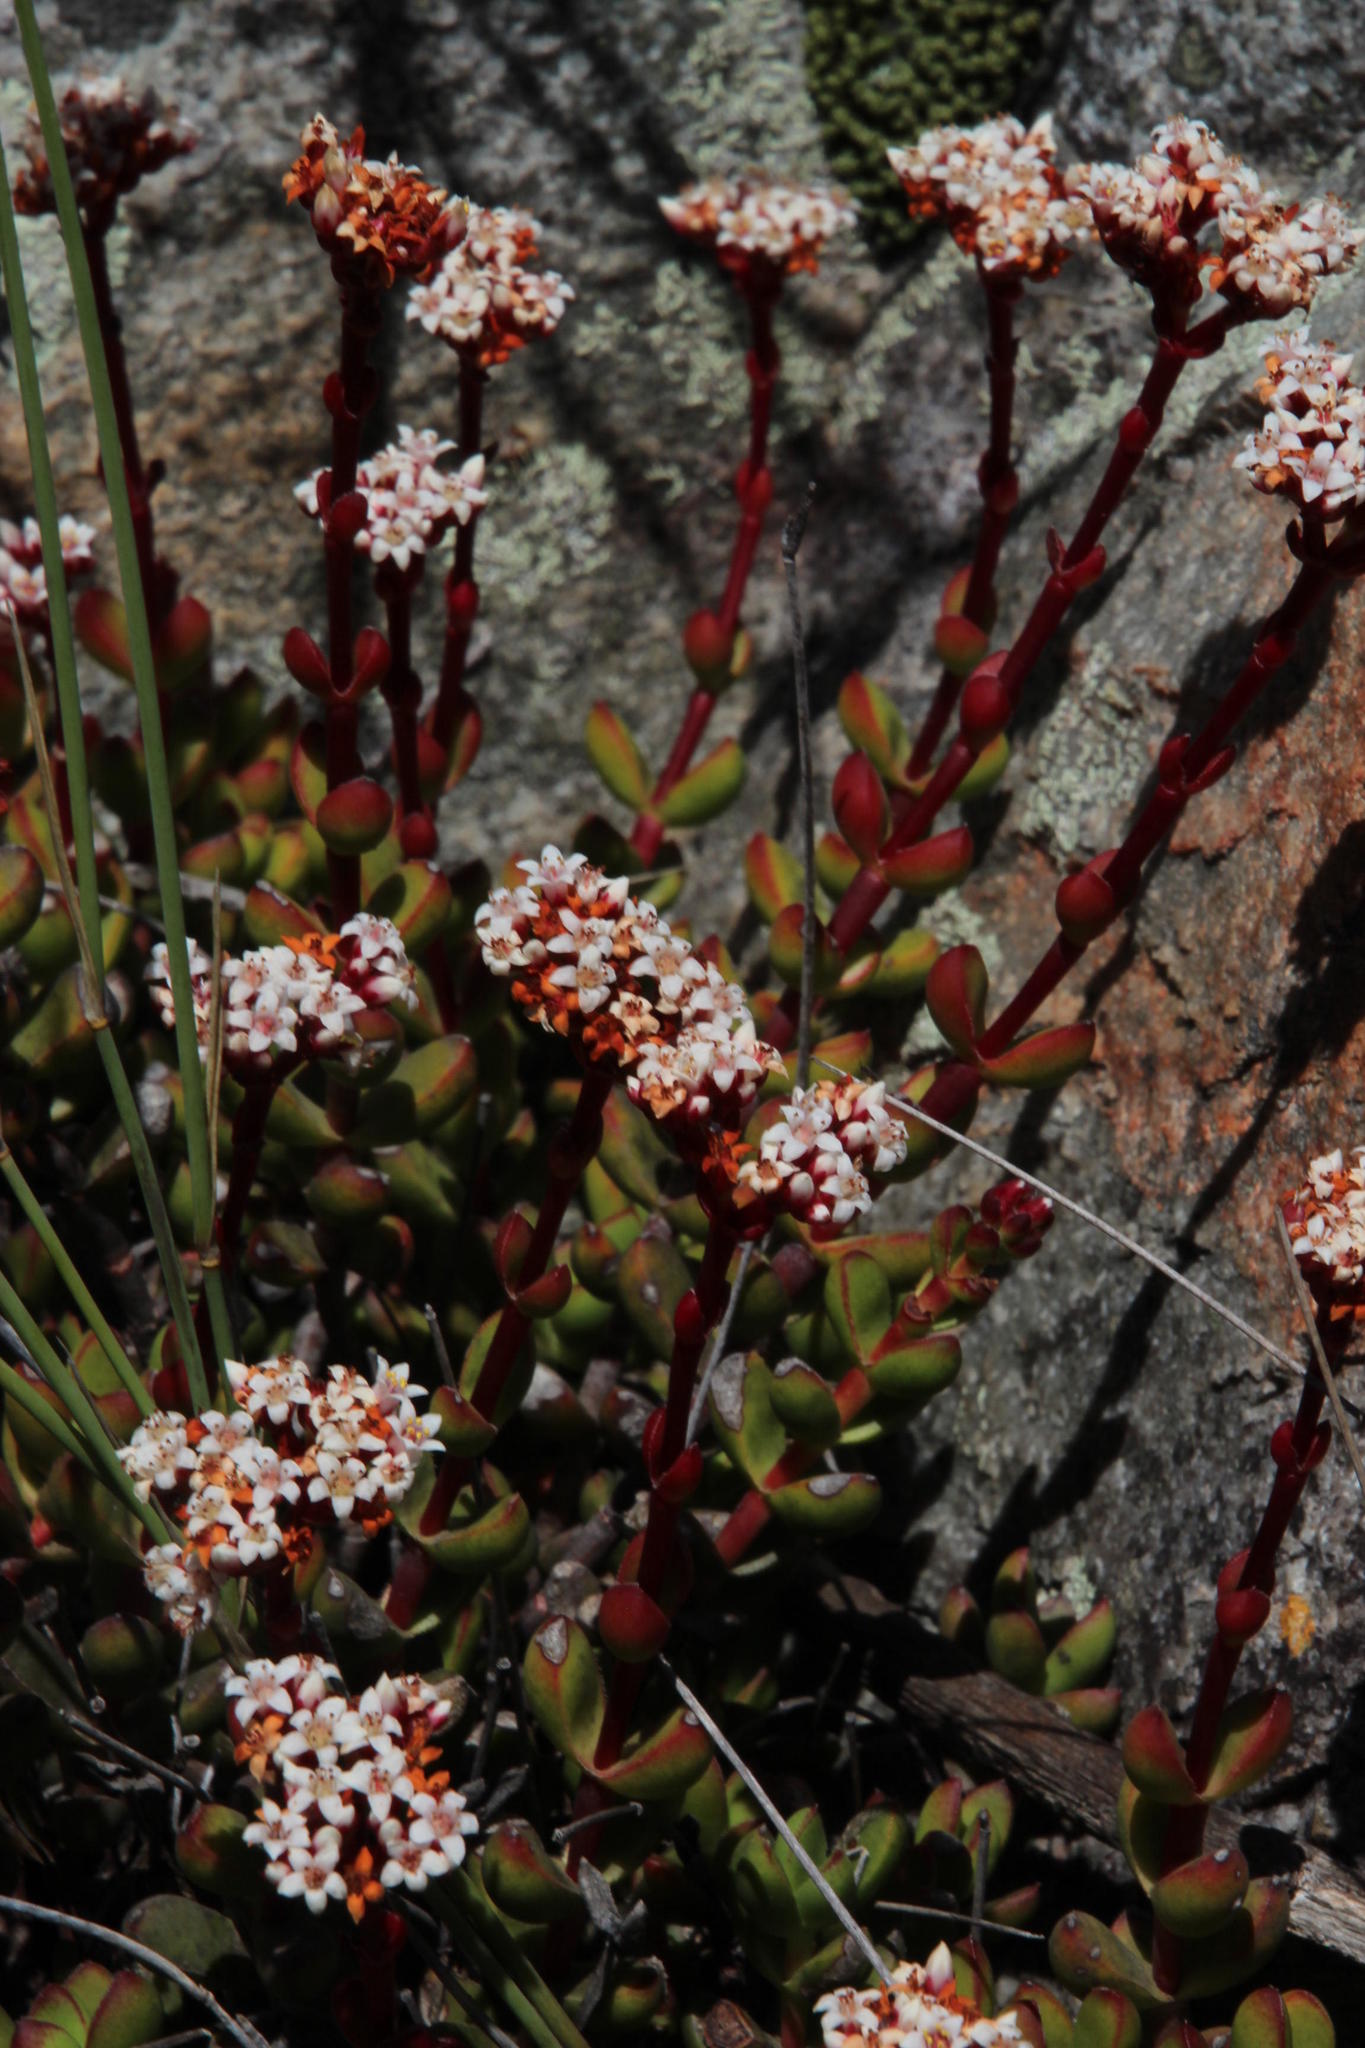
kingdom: Plantae
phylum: Tracheophyta
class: Magnoliopsida
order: Saxifragales
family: Crassulaceae
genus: Crassula
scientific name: Crassula rubricaulis
